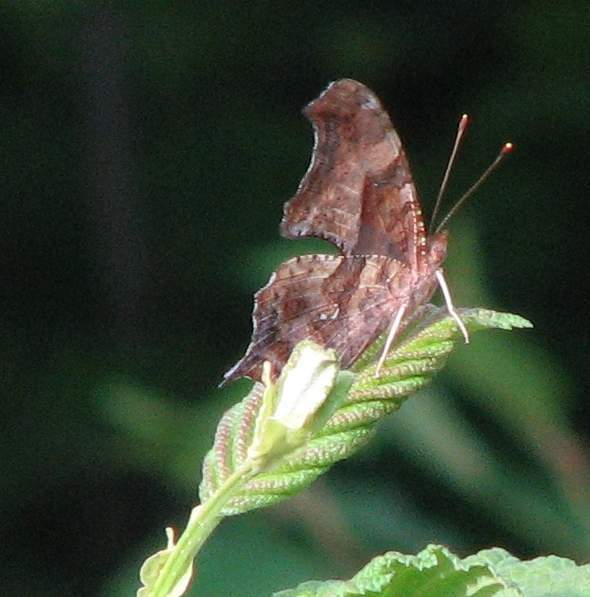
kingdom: Animalia
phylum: Arthropoda
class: Insecta
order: Lepidoptera
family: Nymphalidae
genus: Polygonia
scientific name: Polygonia interrogationis
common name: Question mark
